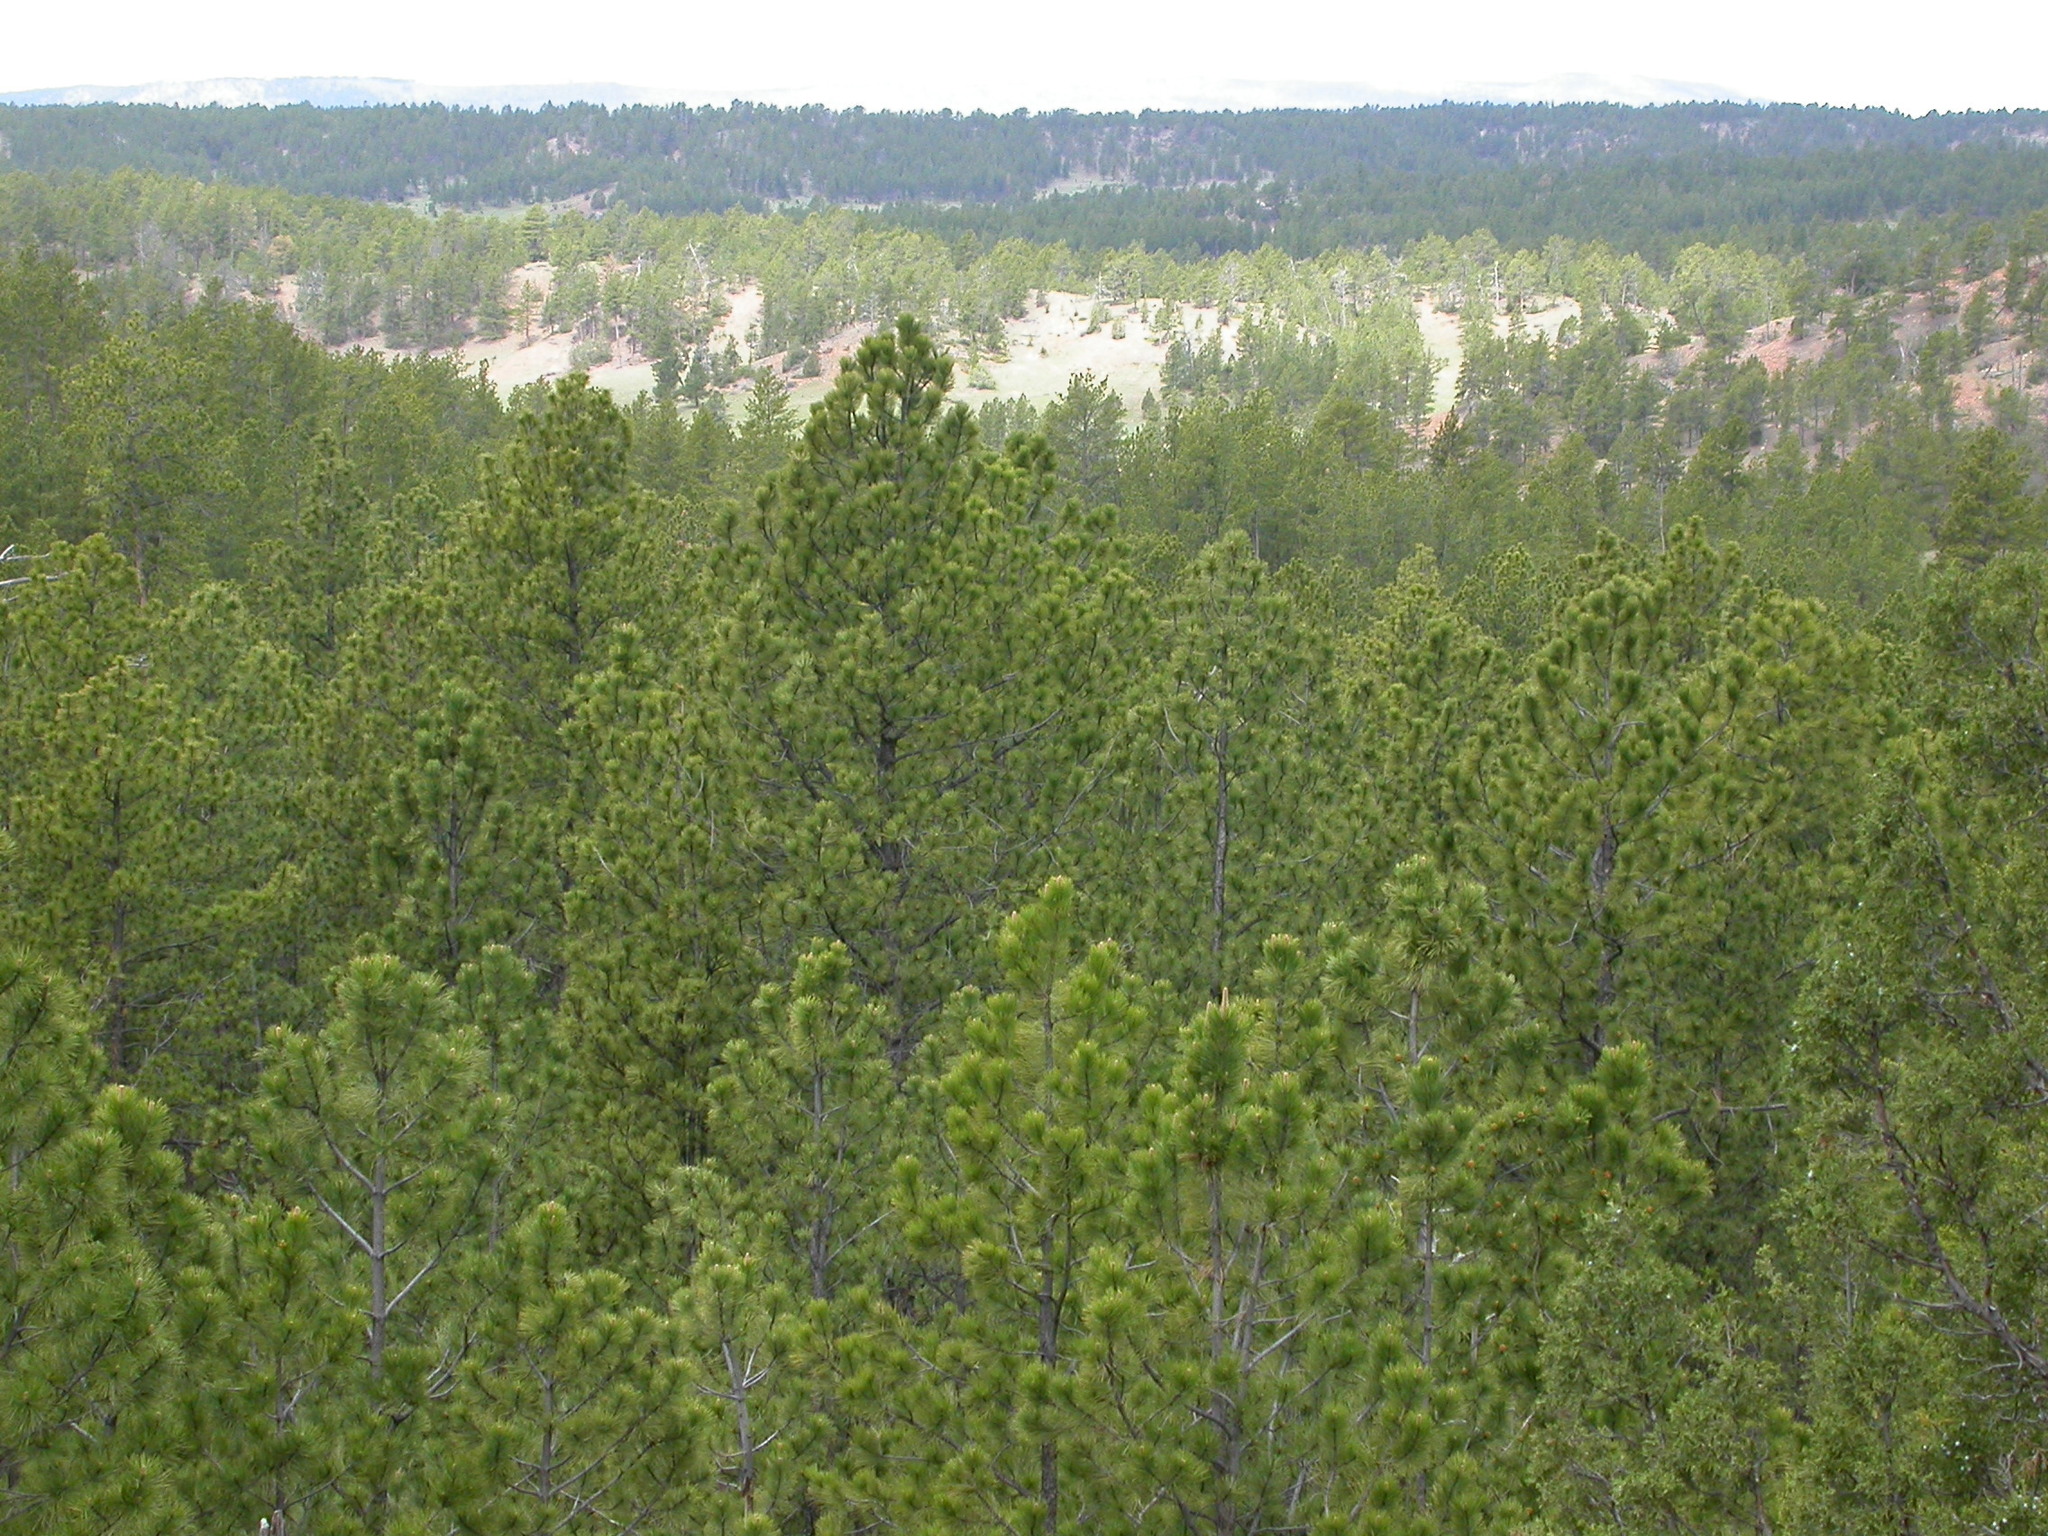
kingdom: Plantae
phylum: Tracheophyta
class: Pinopsida
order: Pinales
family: Pinaceae
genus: Pinus
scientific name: Pinus ponderosa
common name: Western yellow-pine
